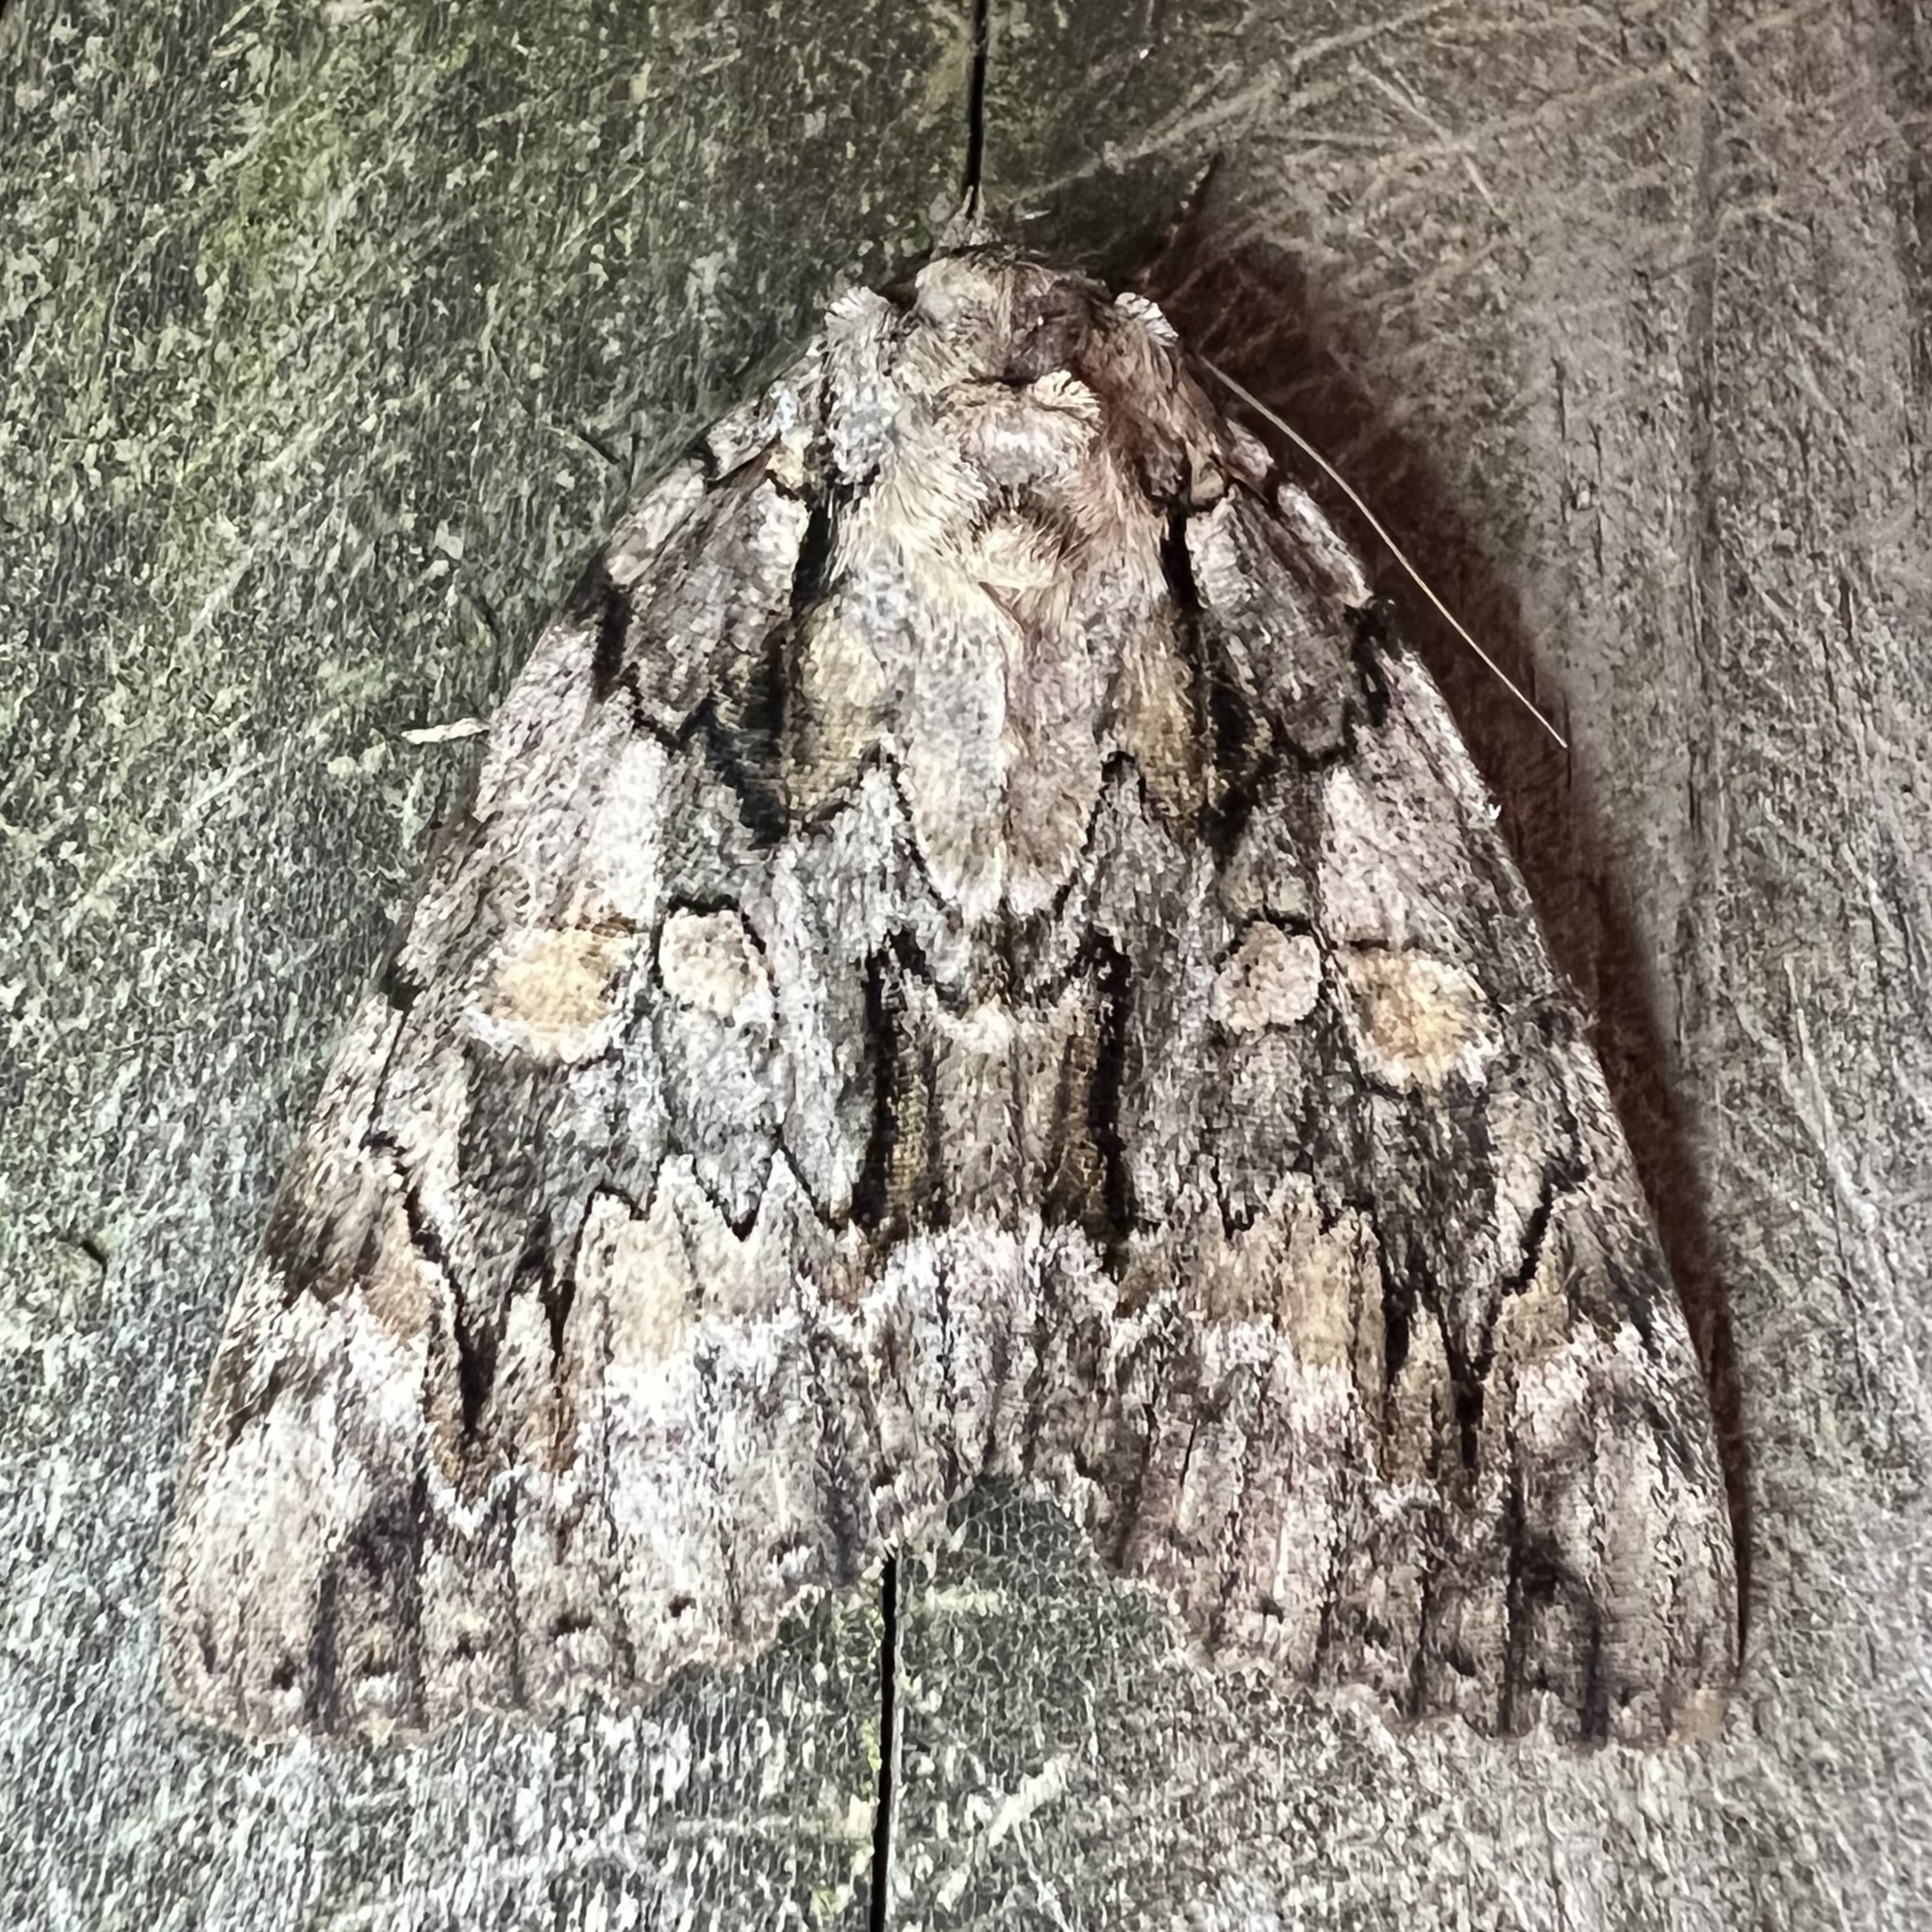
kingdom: Animalia
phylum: Arthropoda
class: Insecta
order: Lepidoptera
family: Erebidae
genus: Catocala
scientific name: Catocala neogama
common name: Bride underwing
